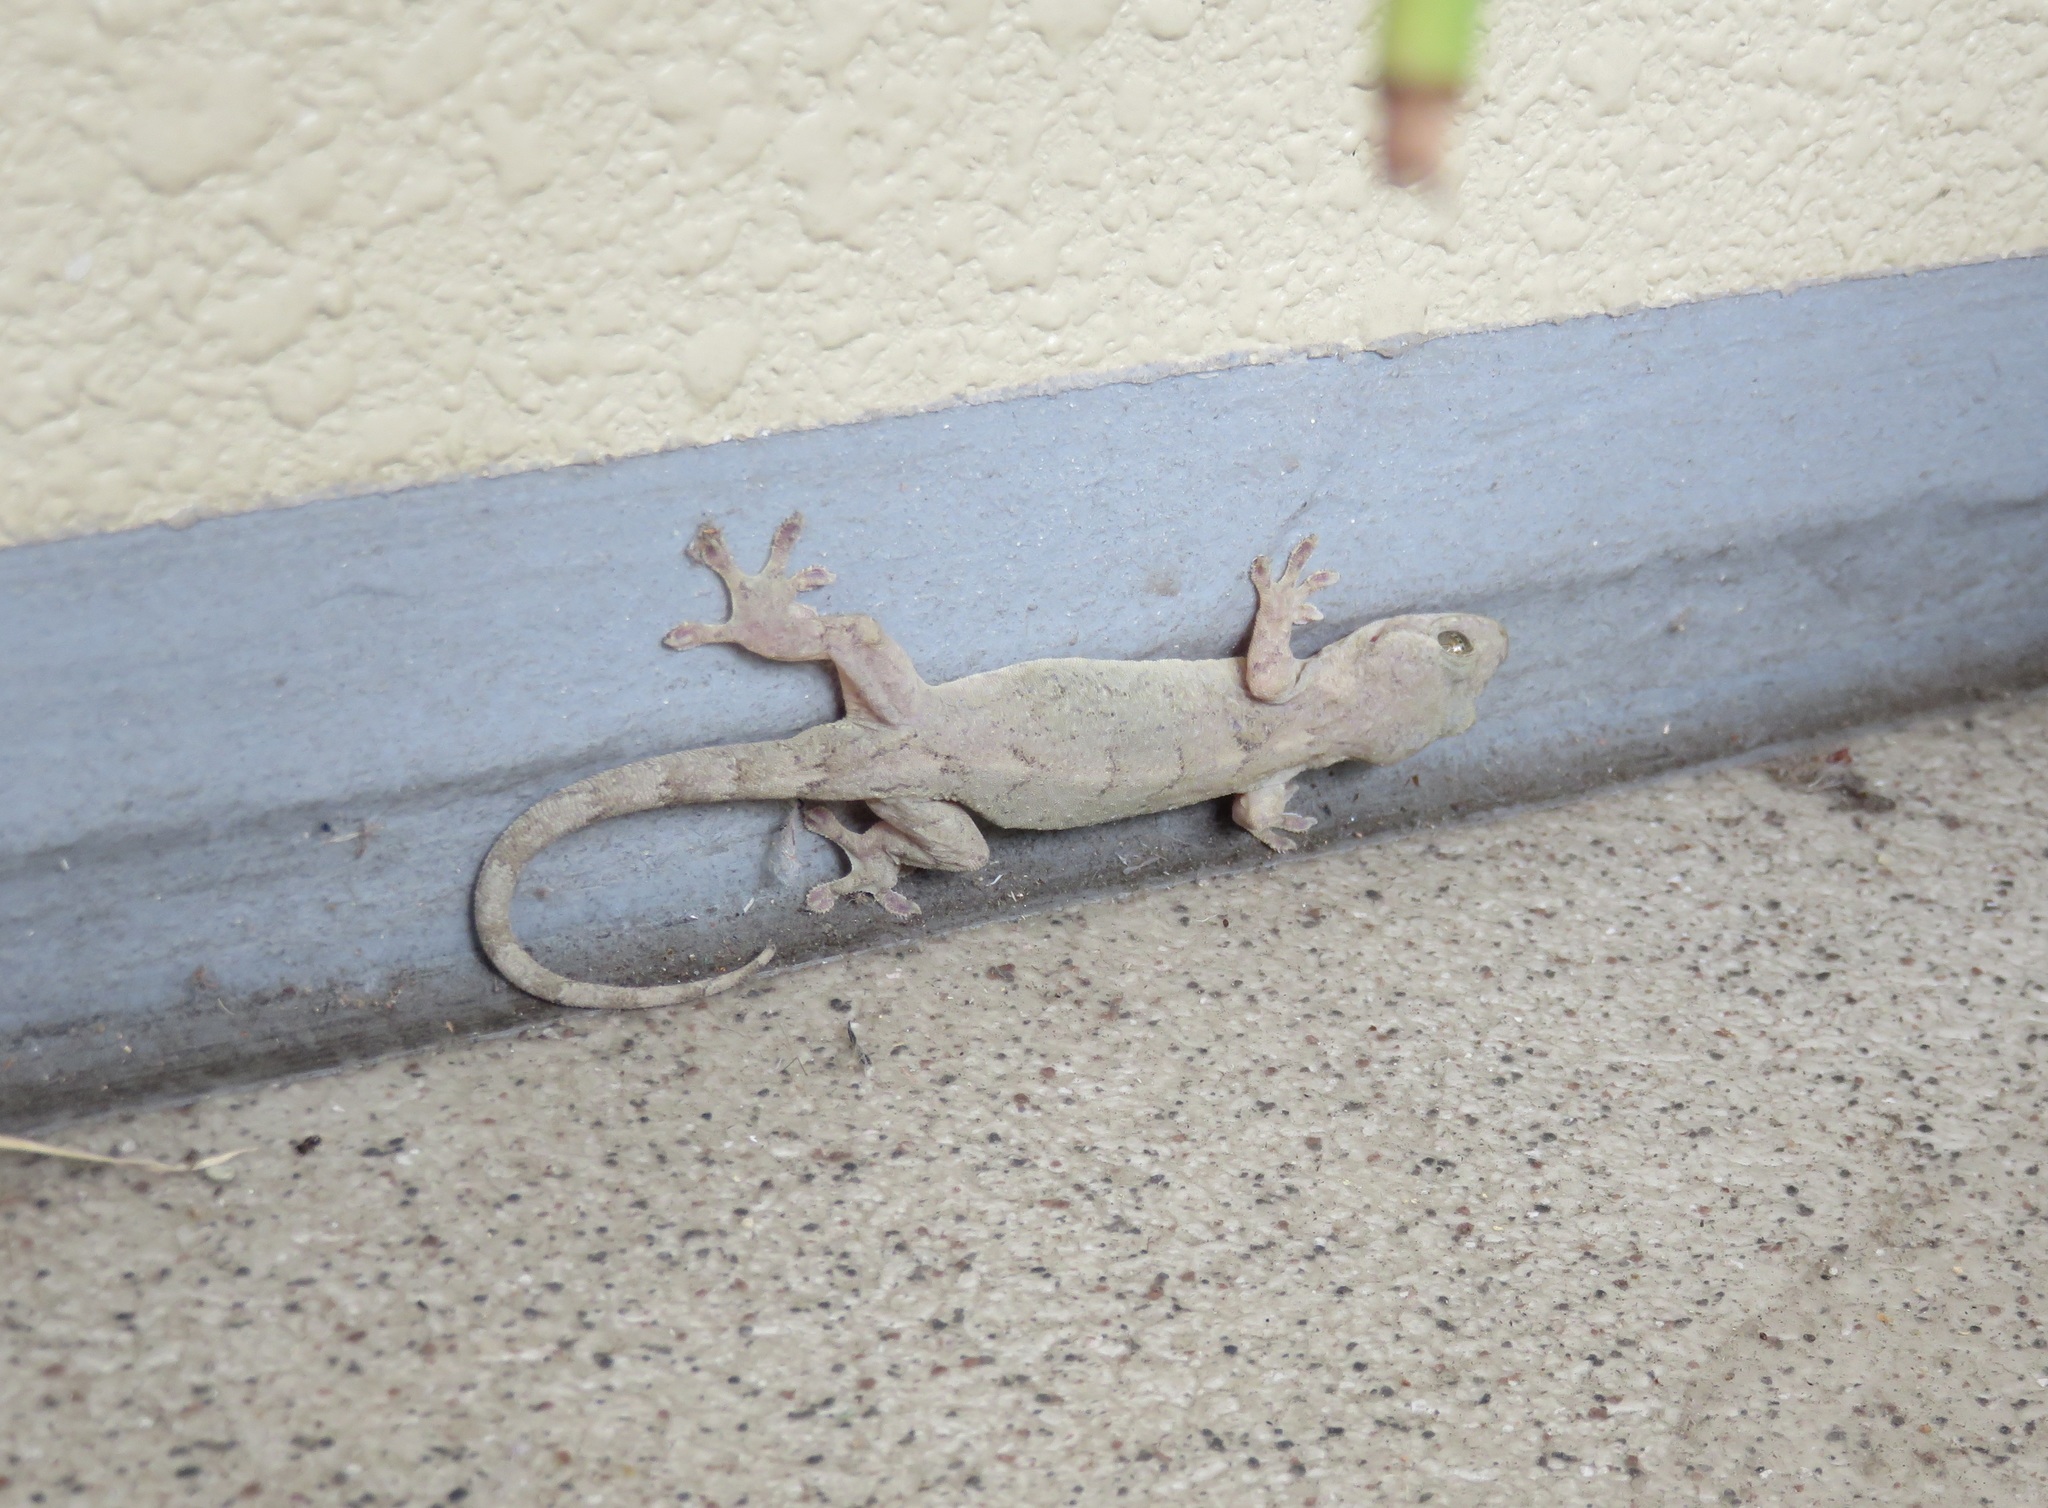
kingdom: Animalia
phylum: Chordata
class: Squamata
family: Gekkonidae
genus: Gekko
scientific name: Gekko japonicus
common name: Schlegel's japanese gecko
